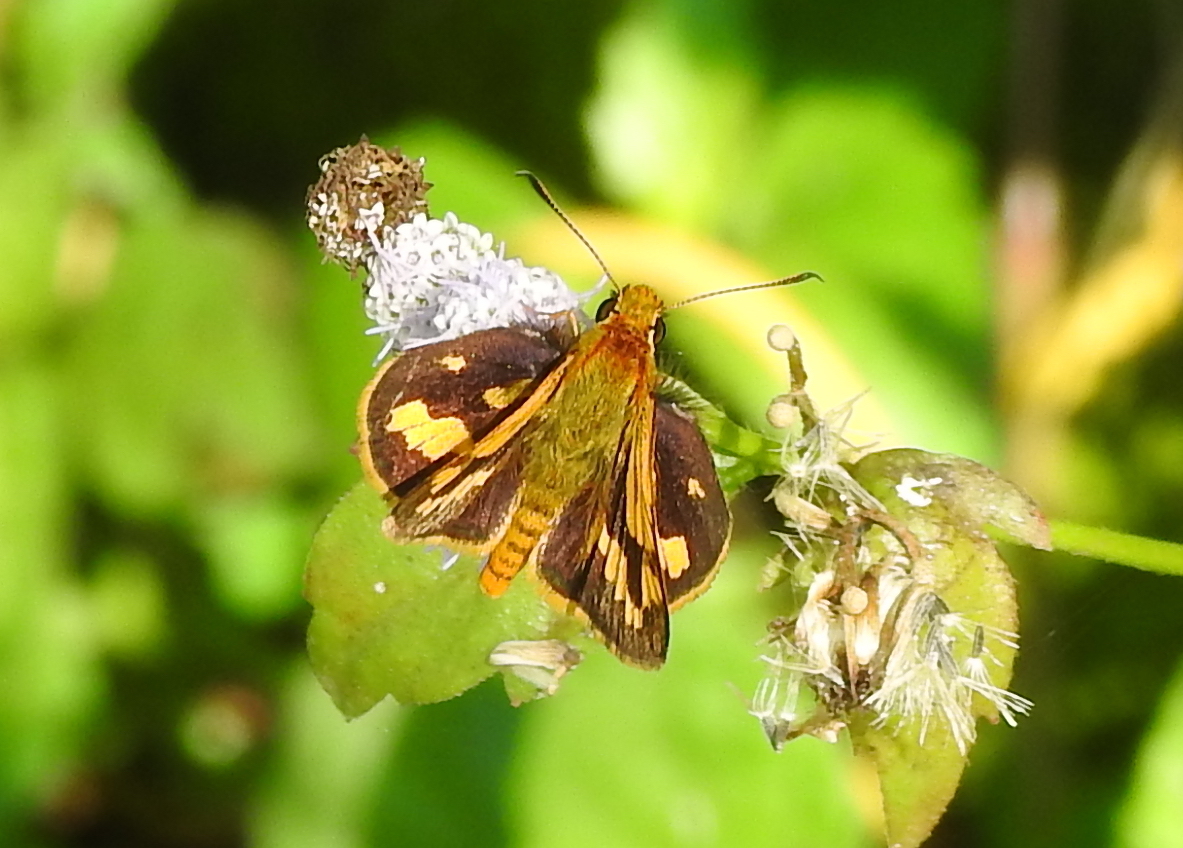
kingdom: Animalia
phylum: Arthropoda
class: Insecta
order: Lepidoptera
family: Hesperiidae
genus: Potanthus
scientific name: Potanthus omaha
